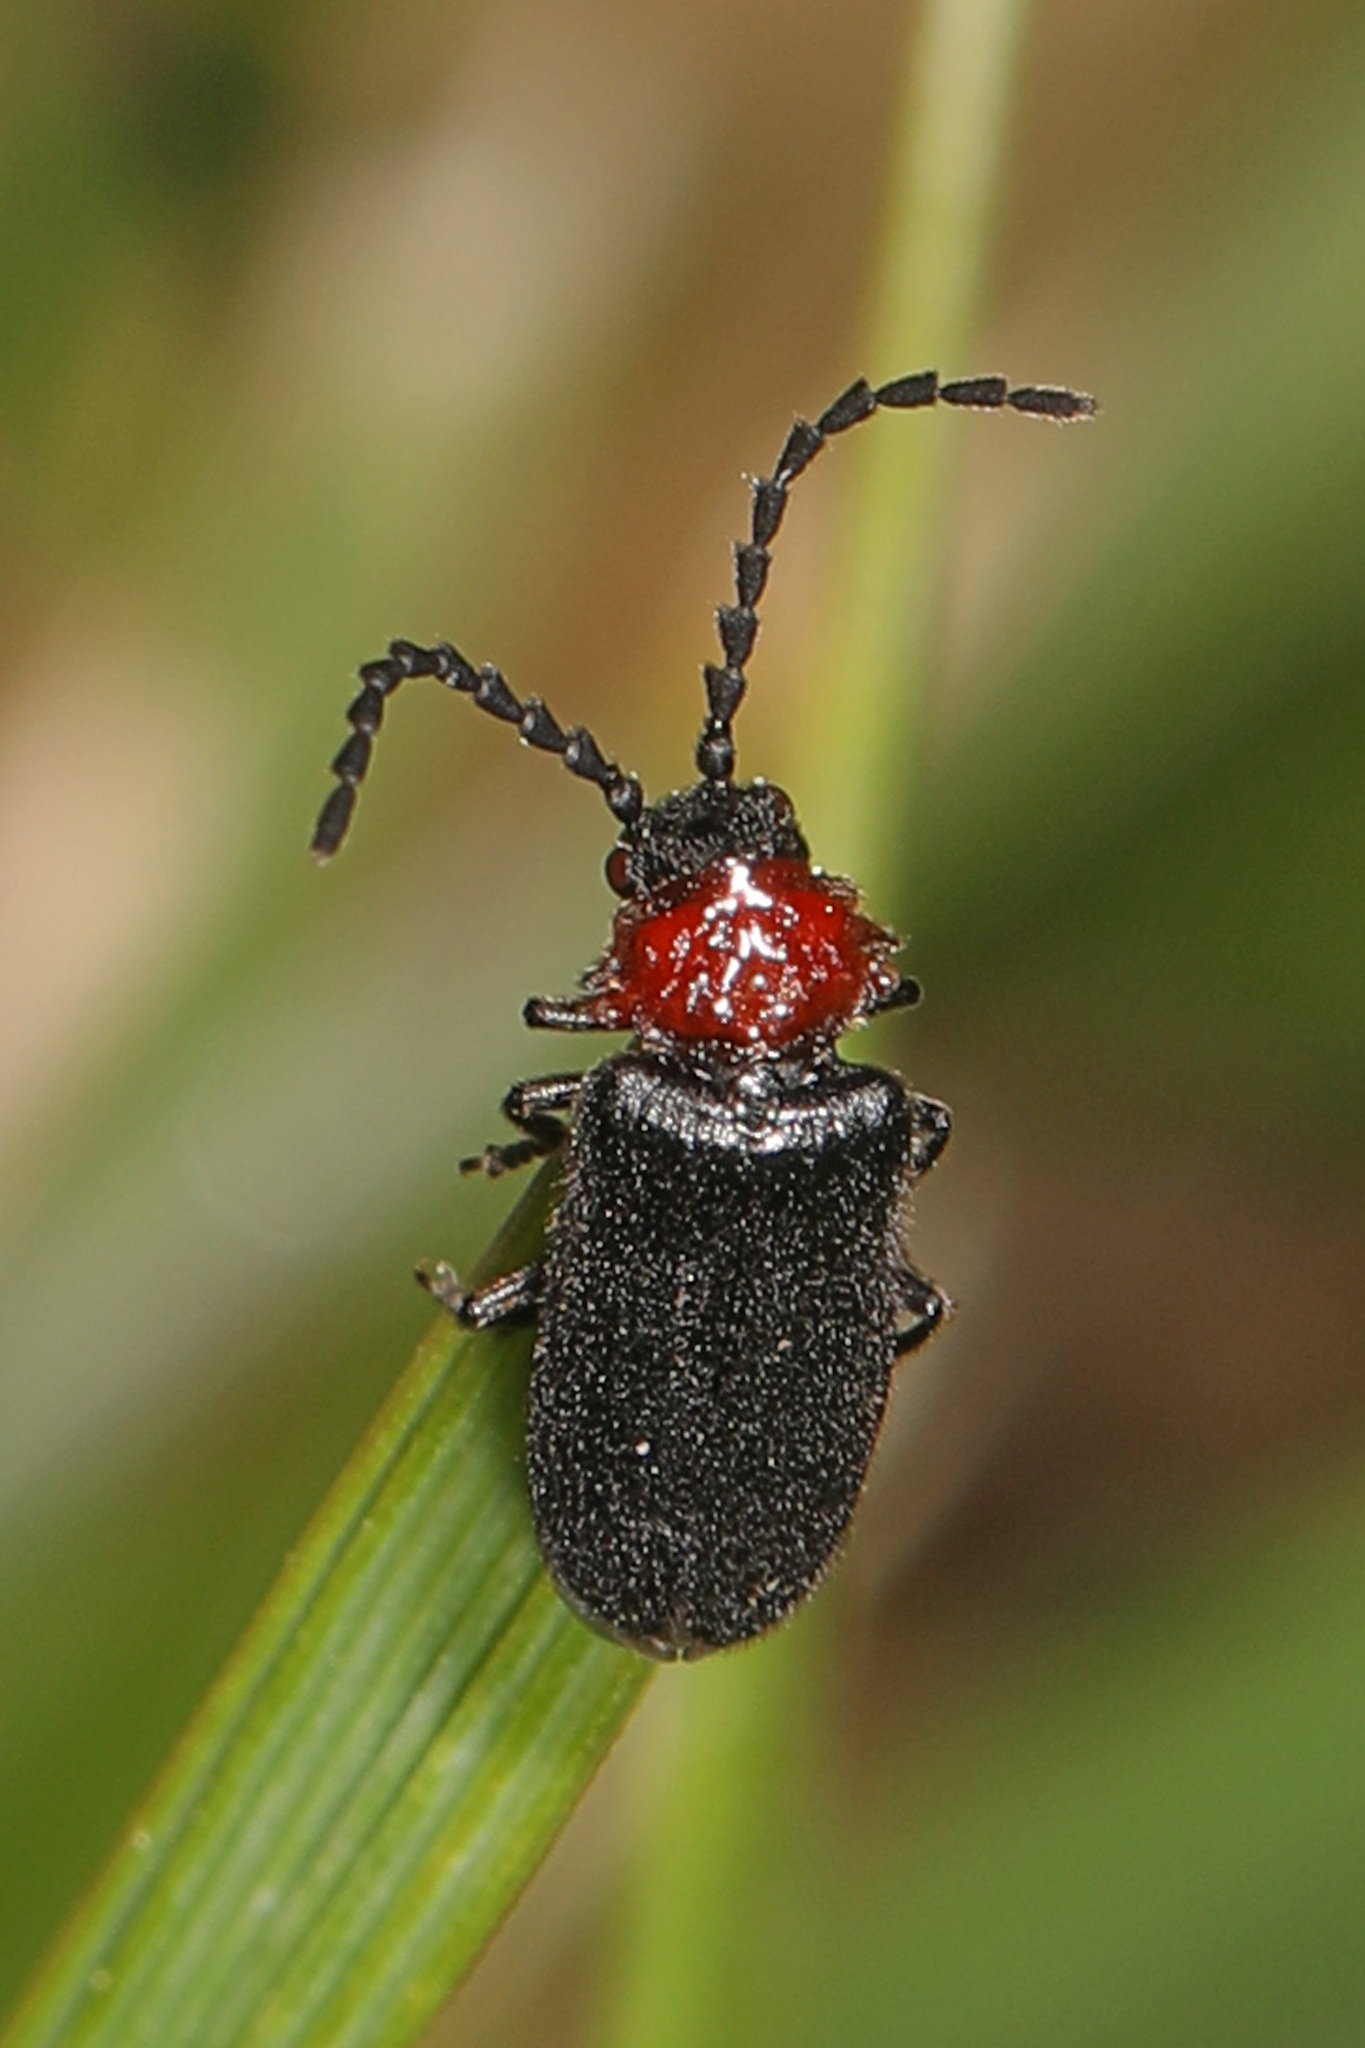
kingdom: Animalia
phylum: Arthropoda
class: Insecta
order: Coleoptera
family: Cantharidae
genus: Ditemnus
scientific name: Ditemnus bidentatus
